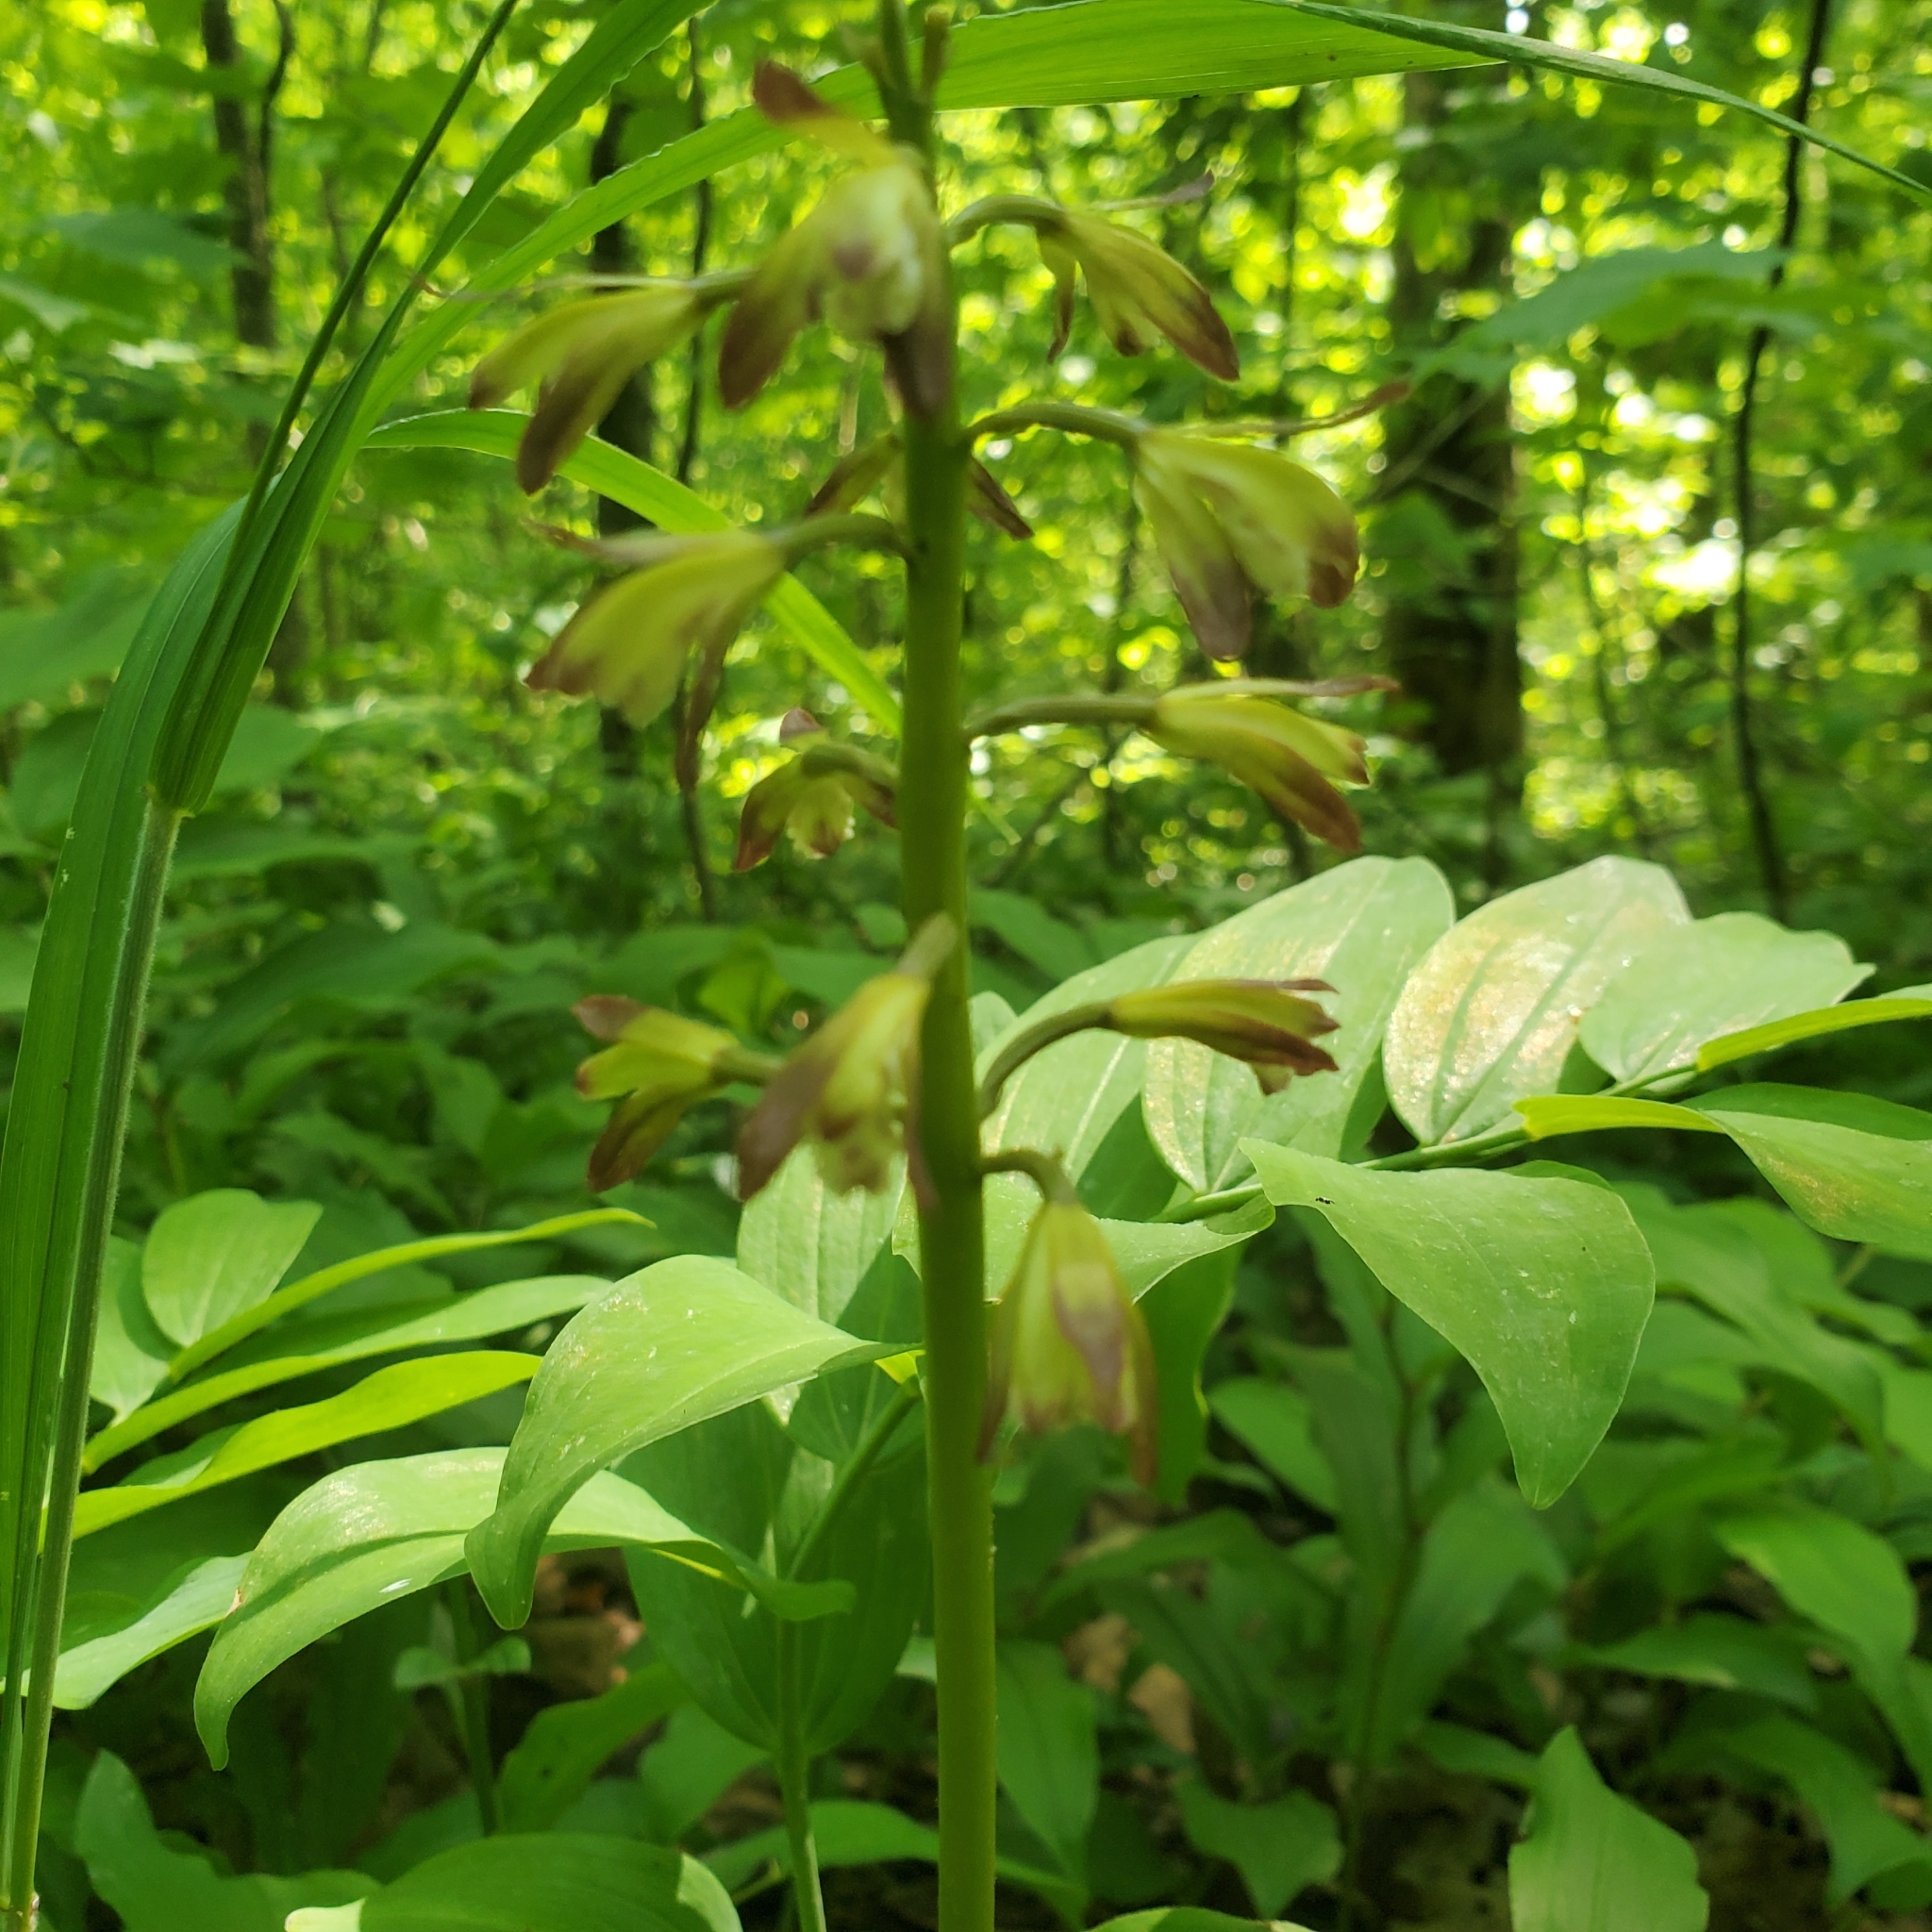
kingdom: Plantae
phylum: Tracheophyta
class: Liliopsida
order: Asparagales
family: Orchidaceae
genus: Aplectrum
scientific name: Aplectrum hyemale
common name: Adam-and-eve
